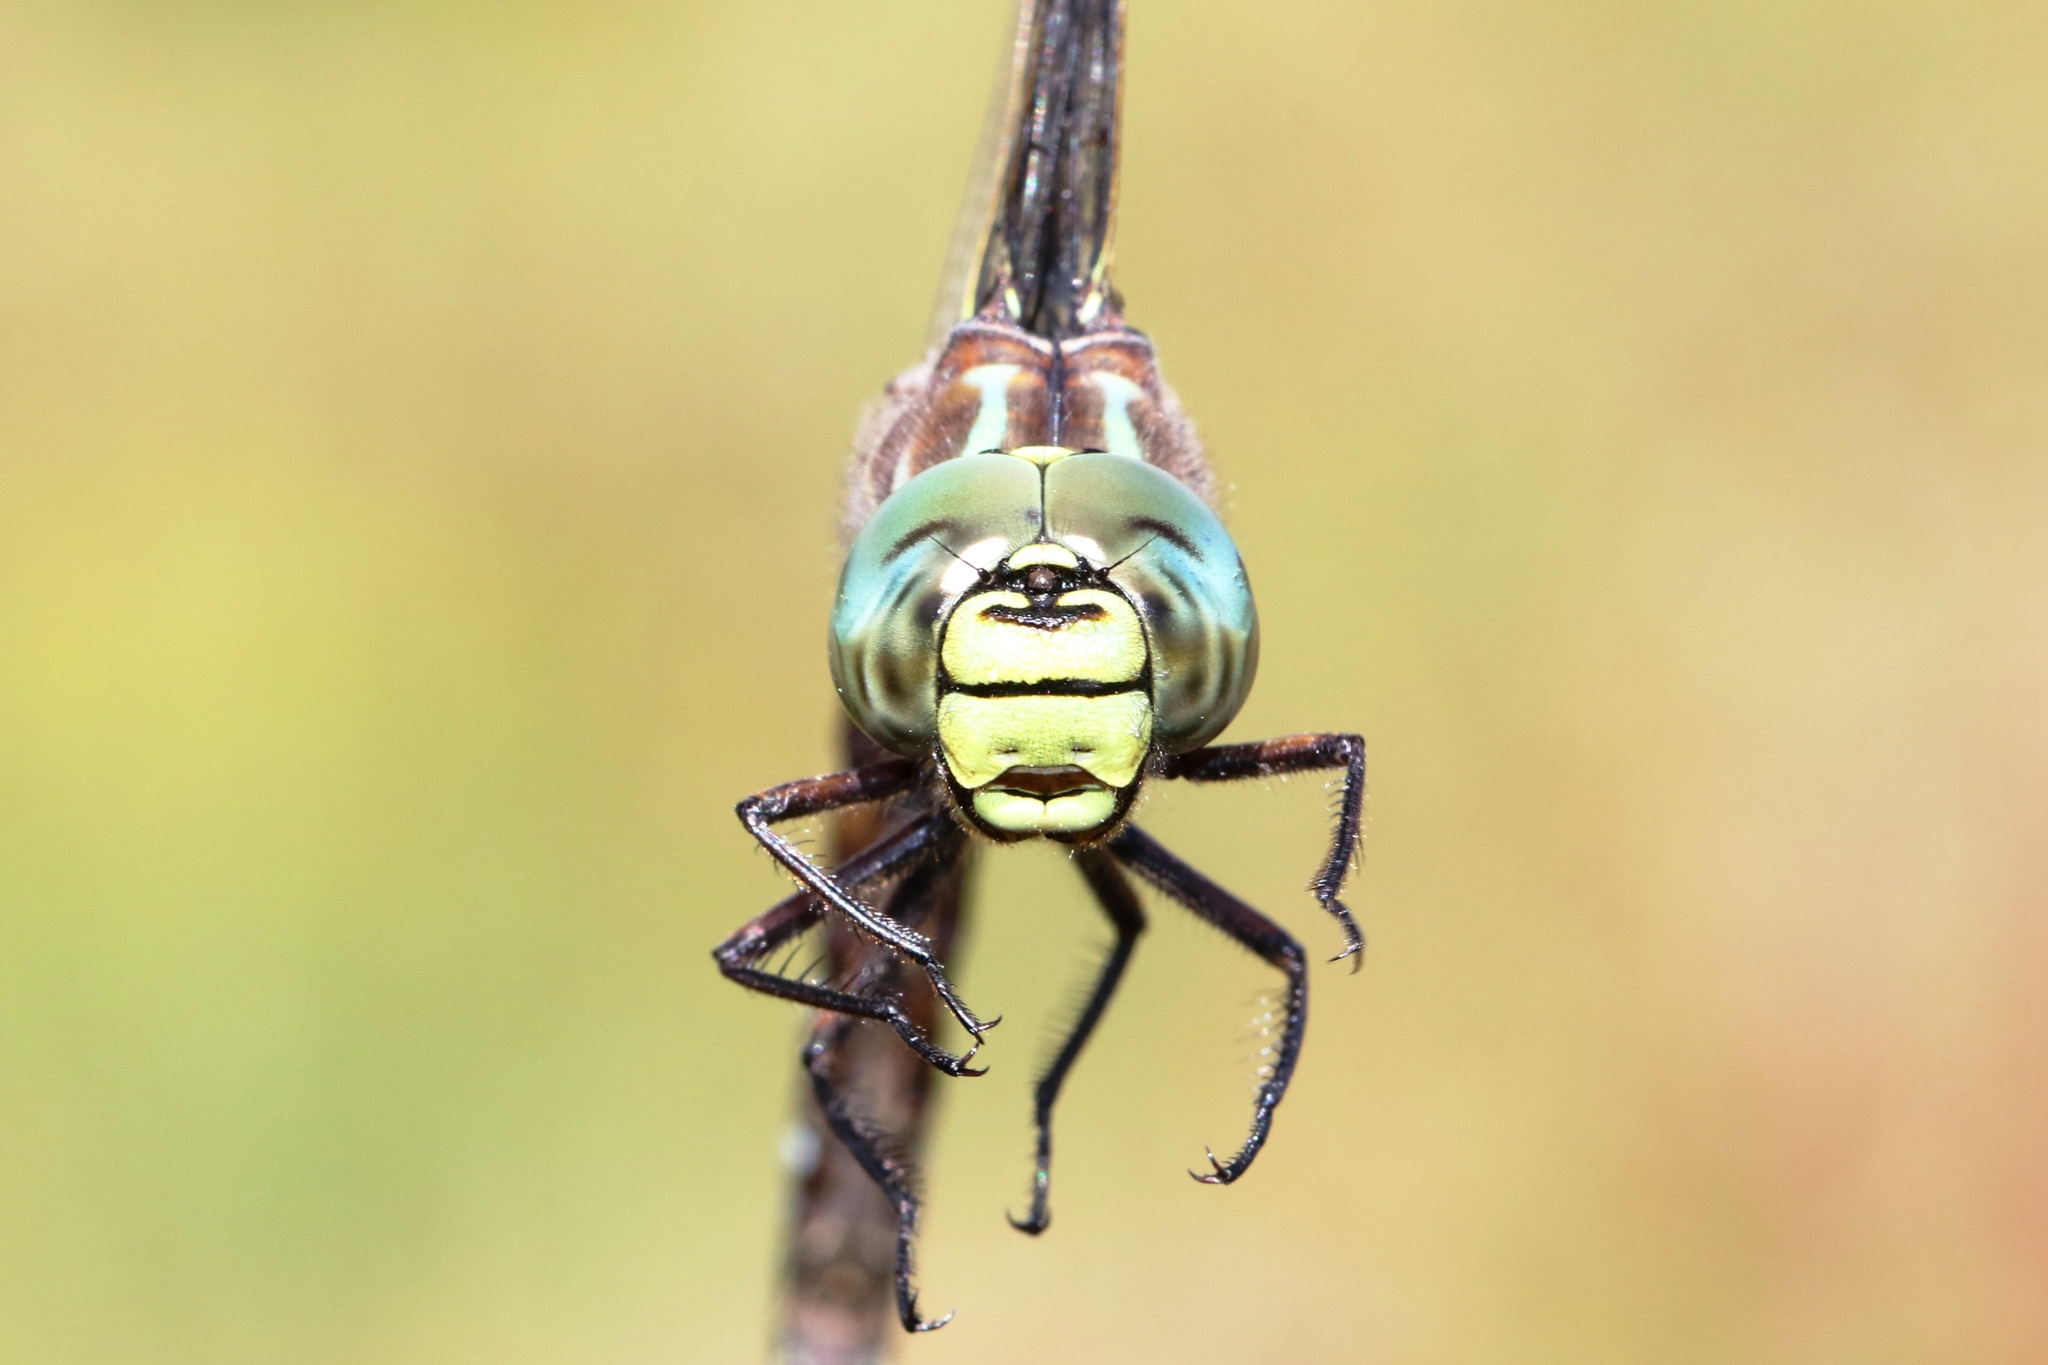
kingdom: Animalia
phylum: Arthropoda
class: Insecta
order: Odonata
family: Aeshnidae
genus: Aeshna
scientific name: Aeshna subarctica
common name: Subarctic darner
